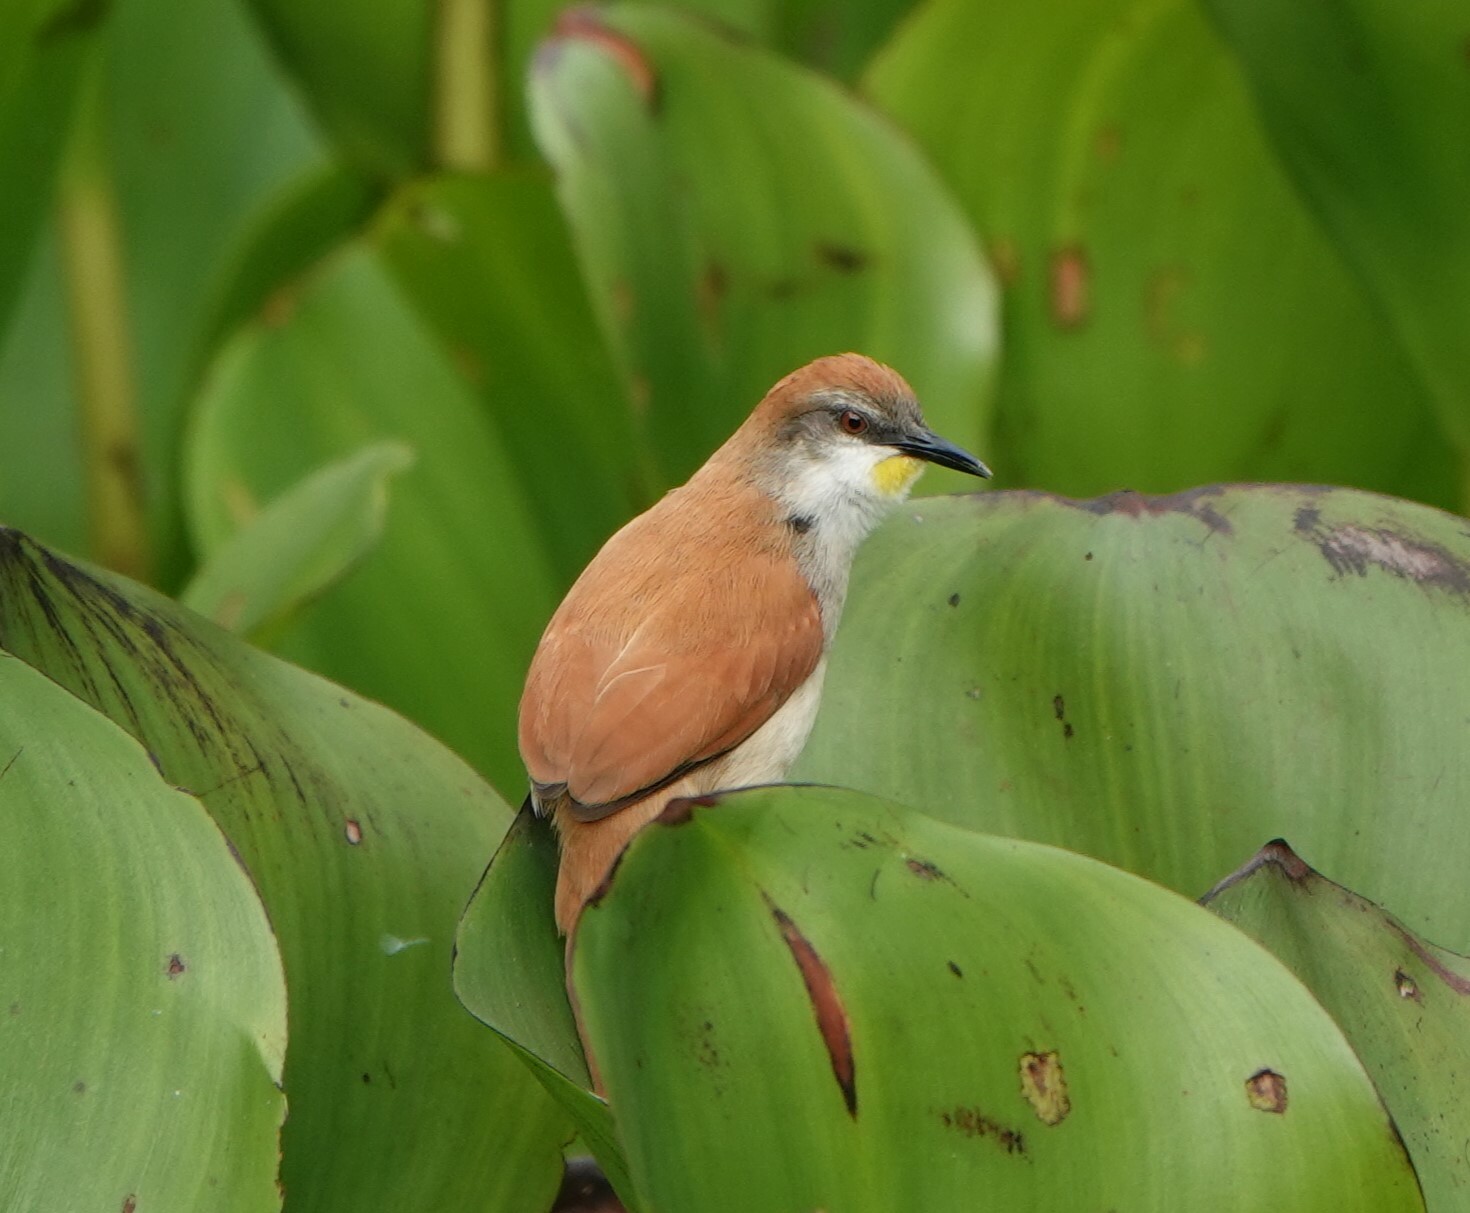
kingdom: Animalia
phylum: Chordata
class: Aves
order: Passeriformes
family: Furnariidae
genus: Certhiaxis
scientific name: Certhiaxis cinnamomeus
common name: Yellow-chinned spinetail
